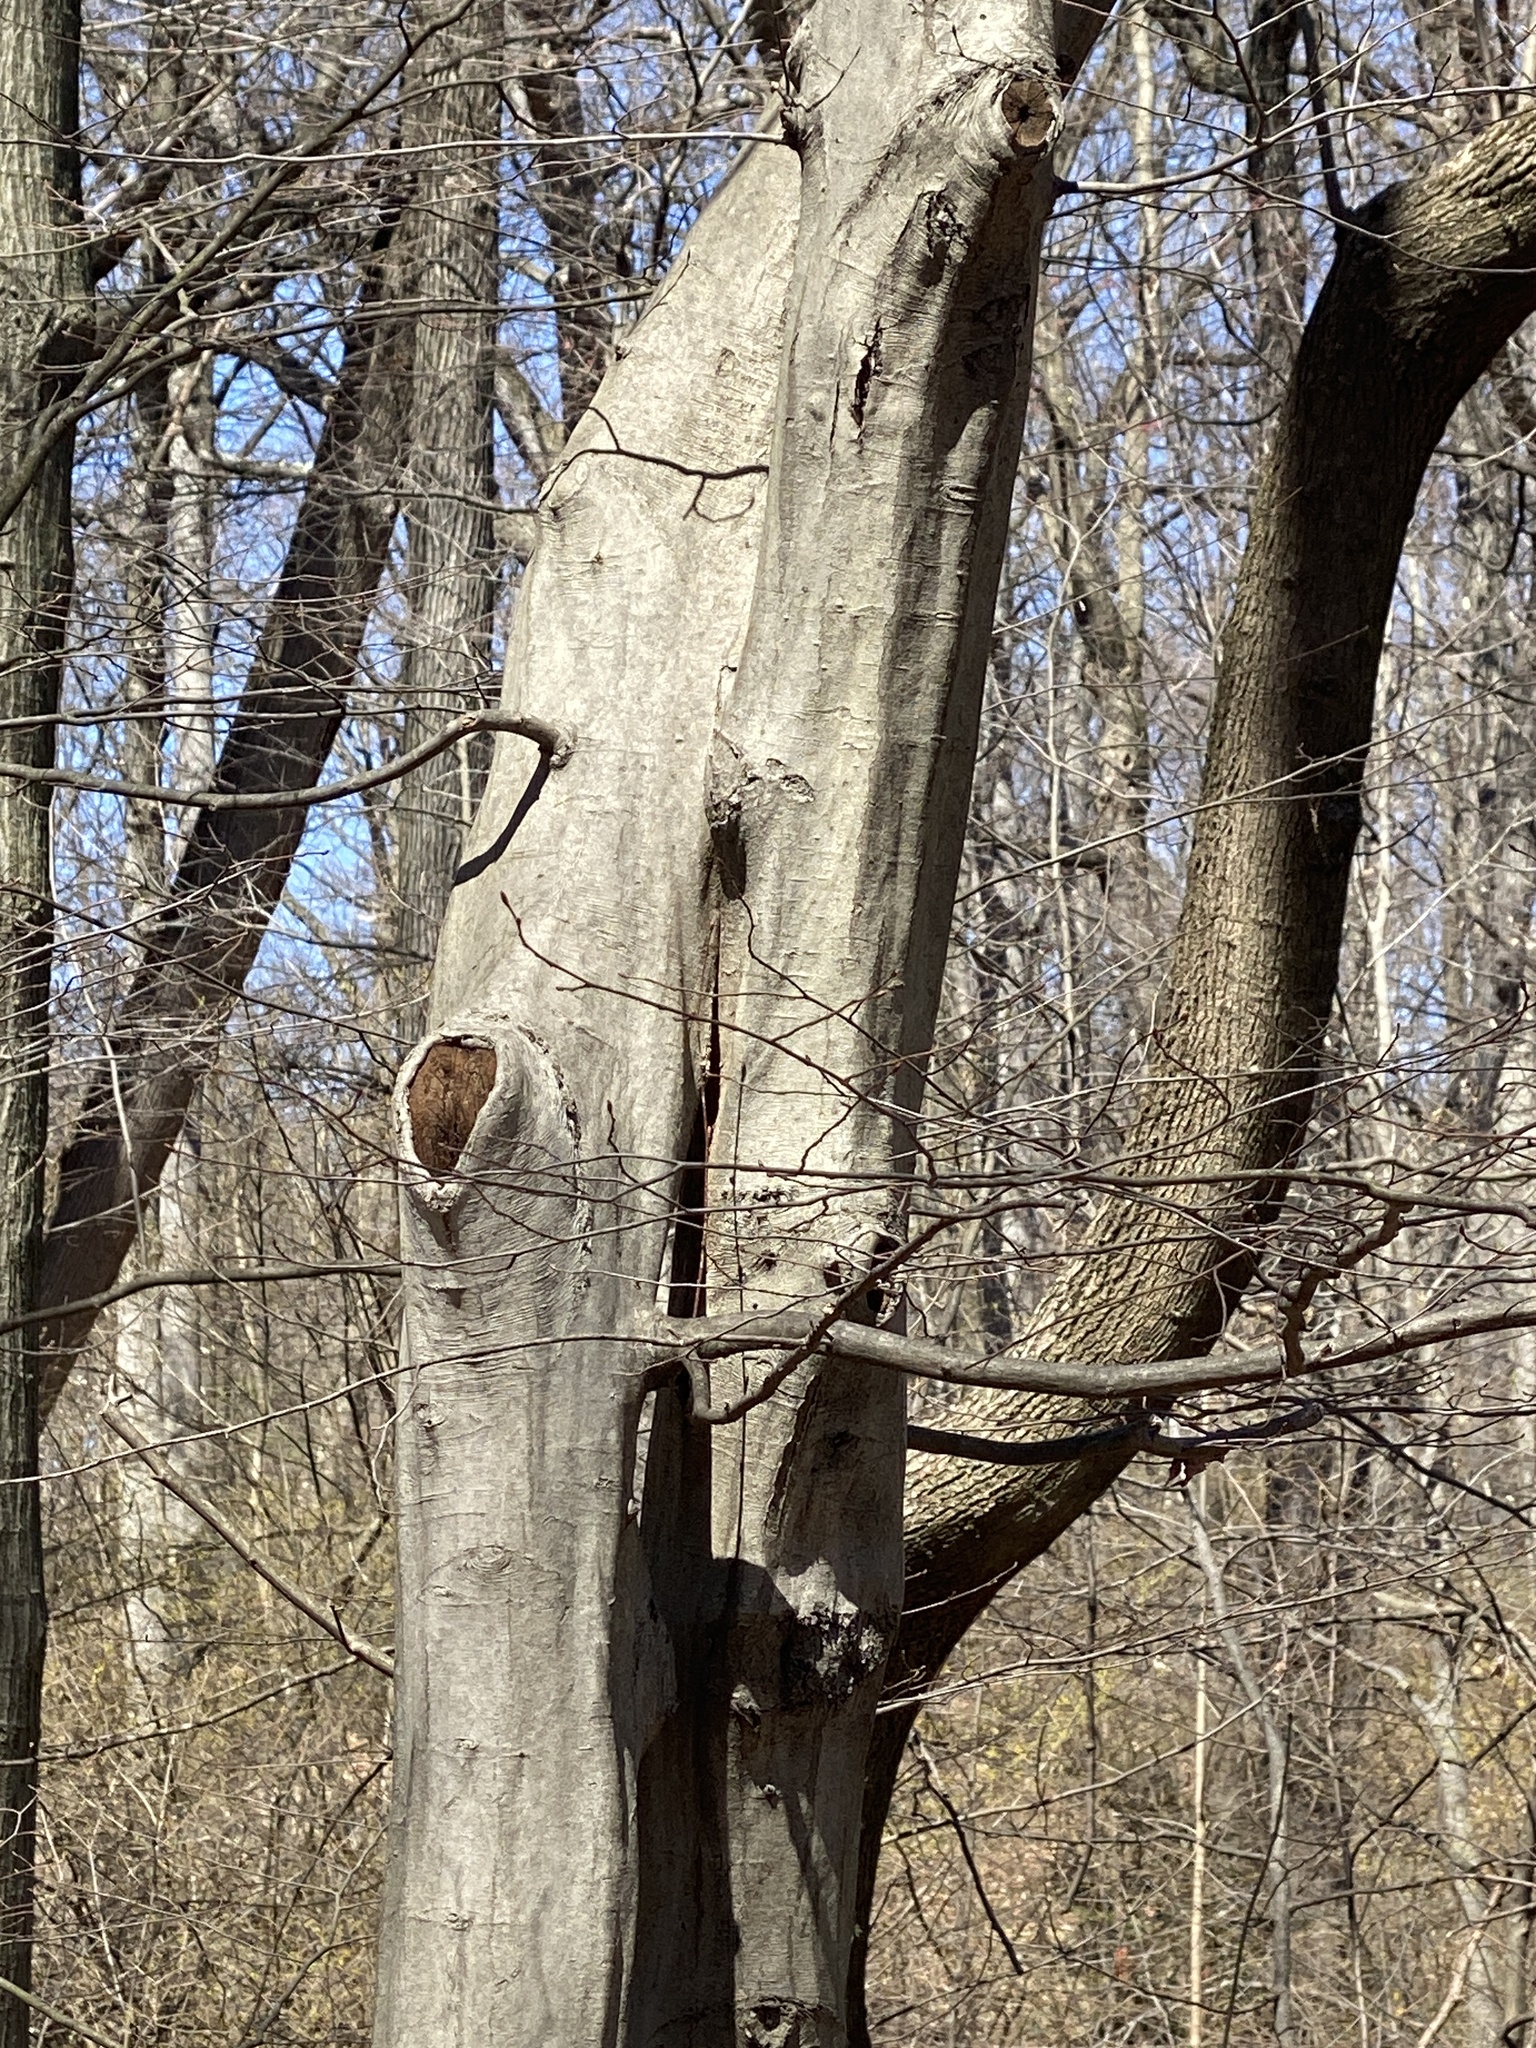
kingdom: Plantae
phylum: Tracheophyta
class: Magnoliopsida
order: Fagales
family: Betulaceae
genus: Carpinus
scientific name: Carpinus caroliniana
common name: American hornbeam
